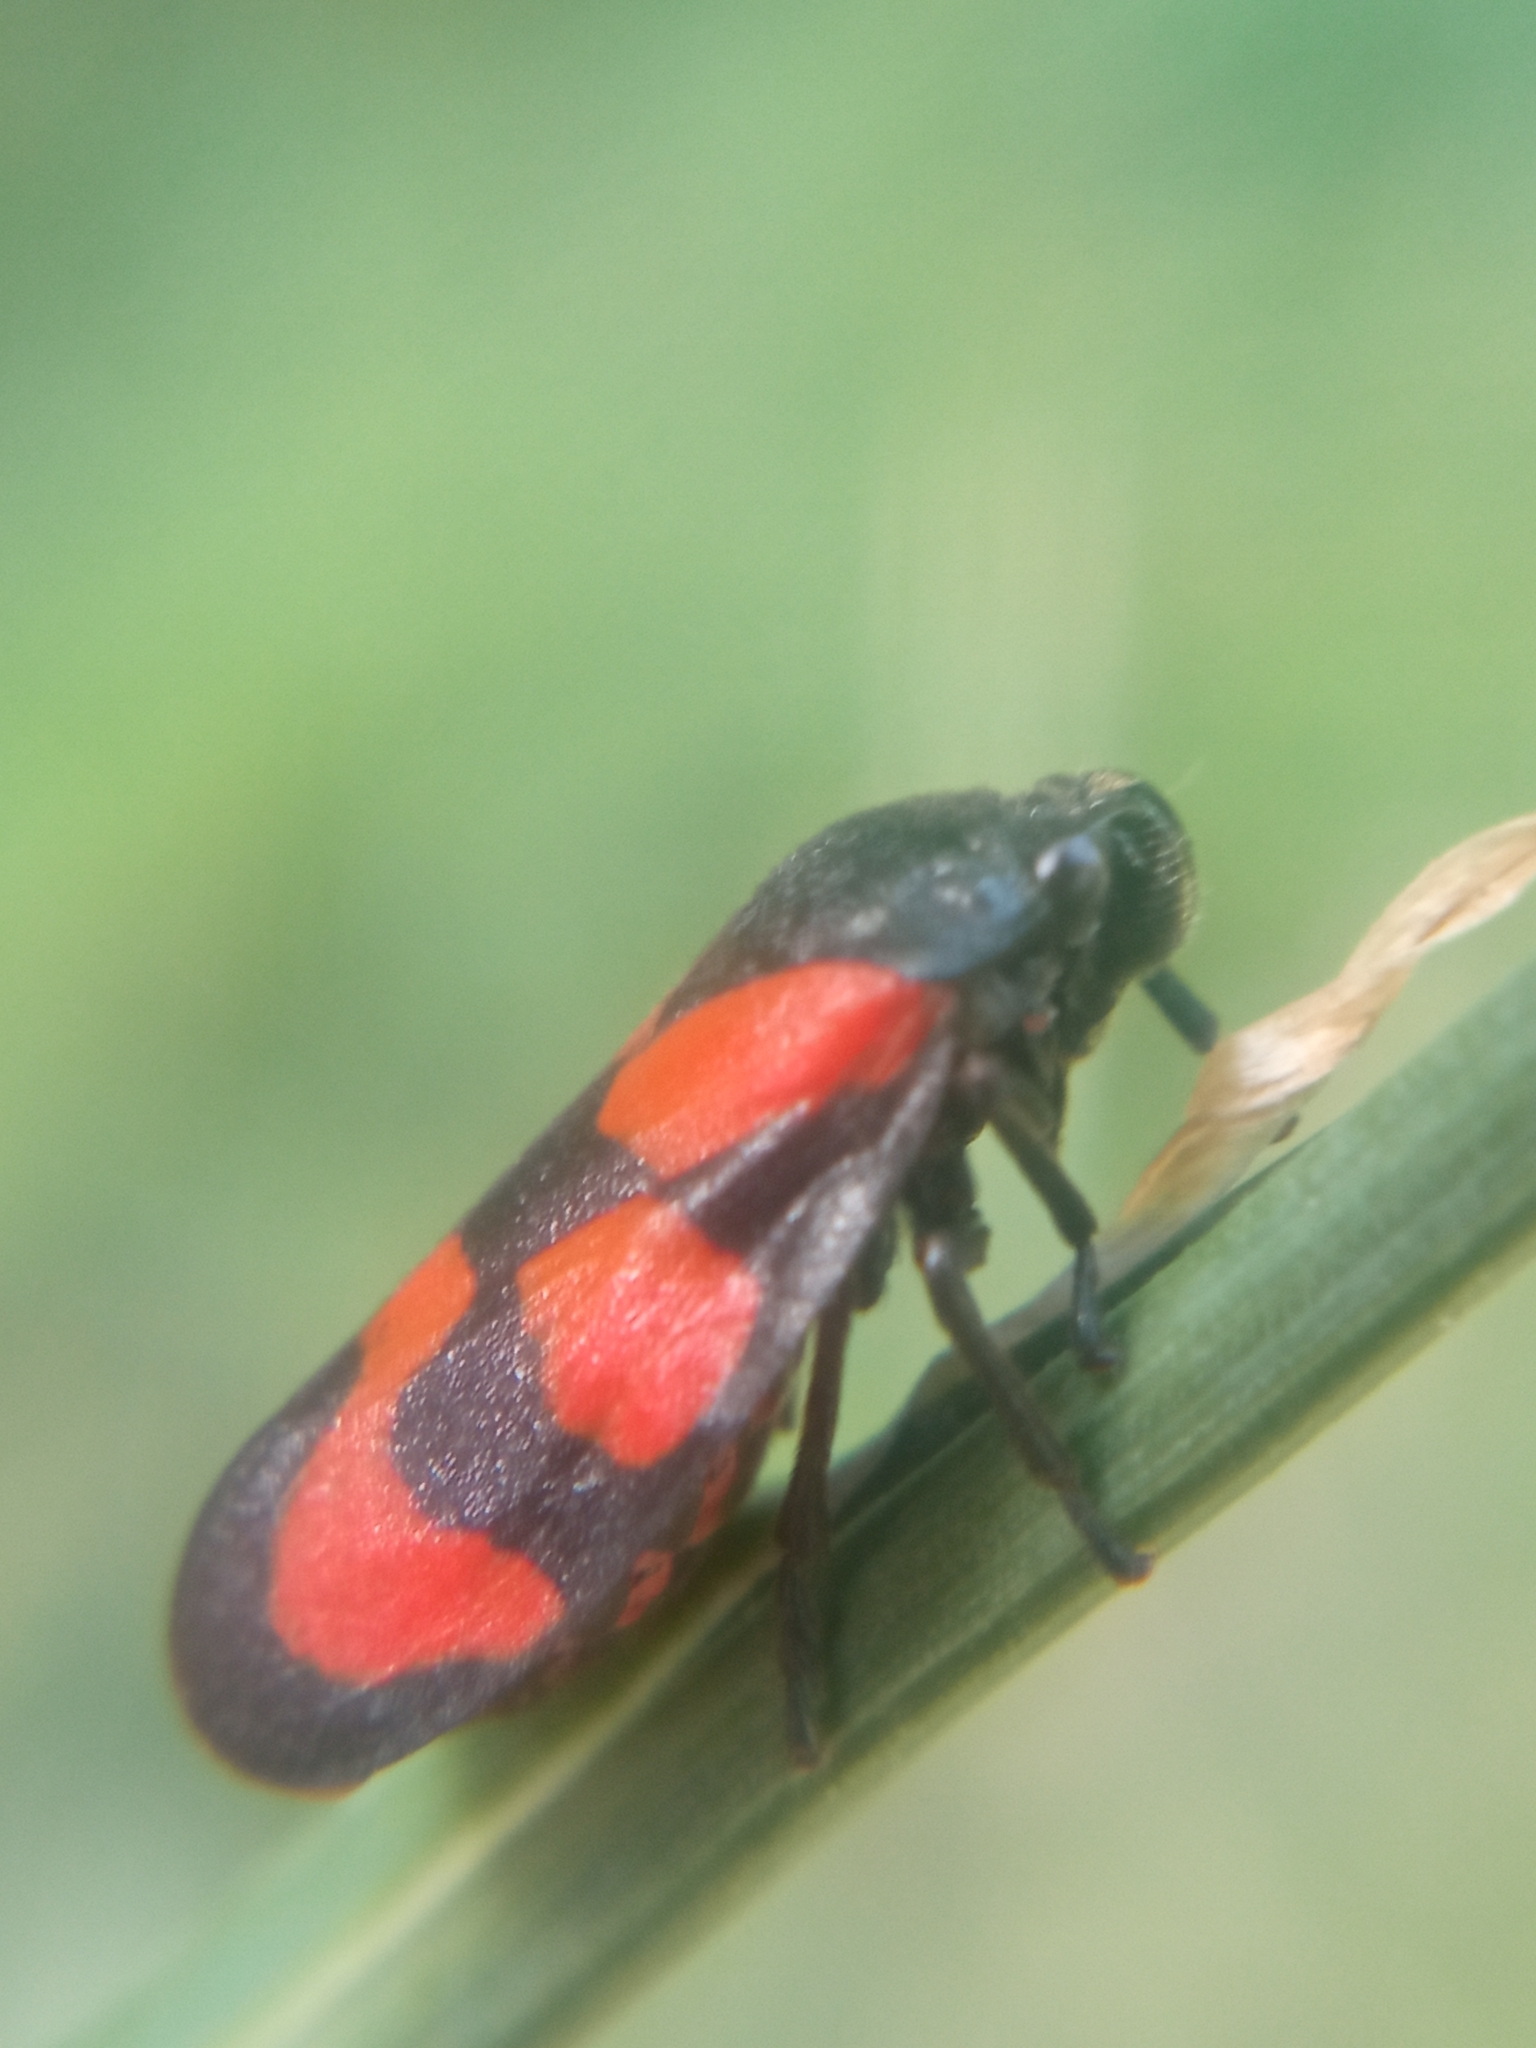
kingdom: Animalia
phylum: Arthropoda
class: Insecta
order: Hemiptera
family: Cercopidae
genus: Cercopis
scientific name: Cercopis vulnerata
